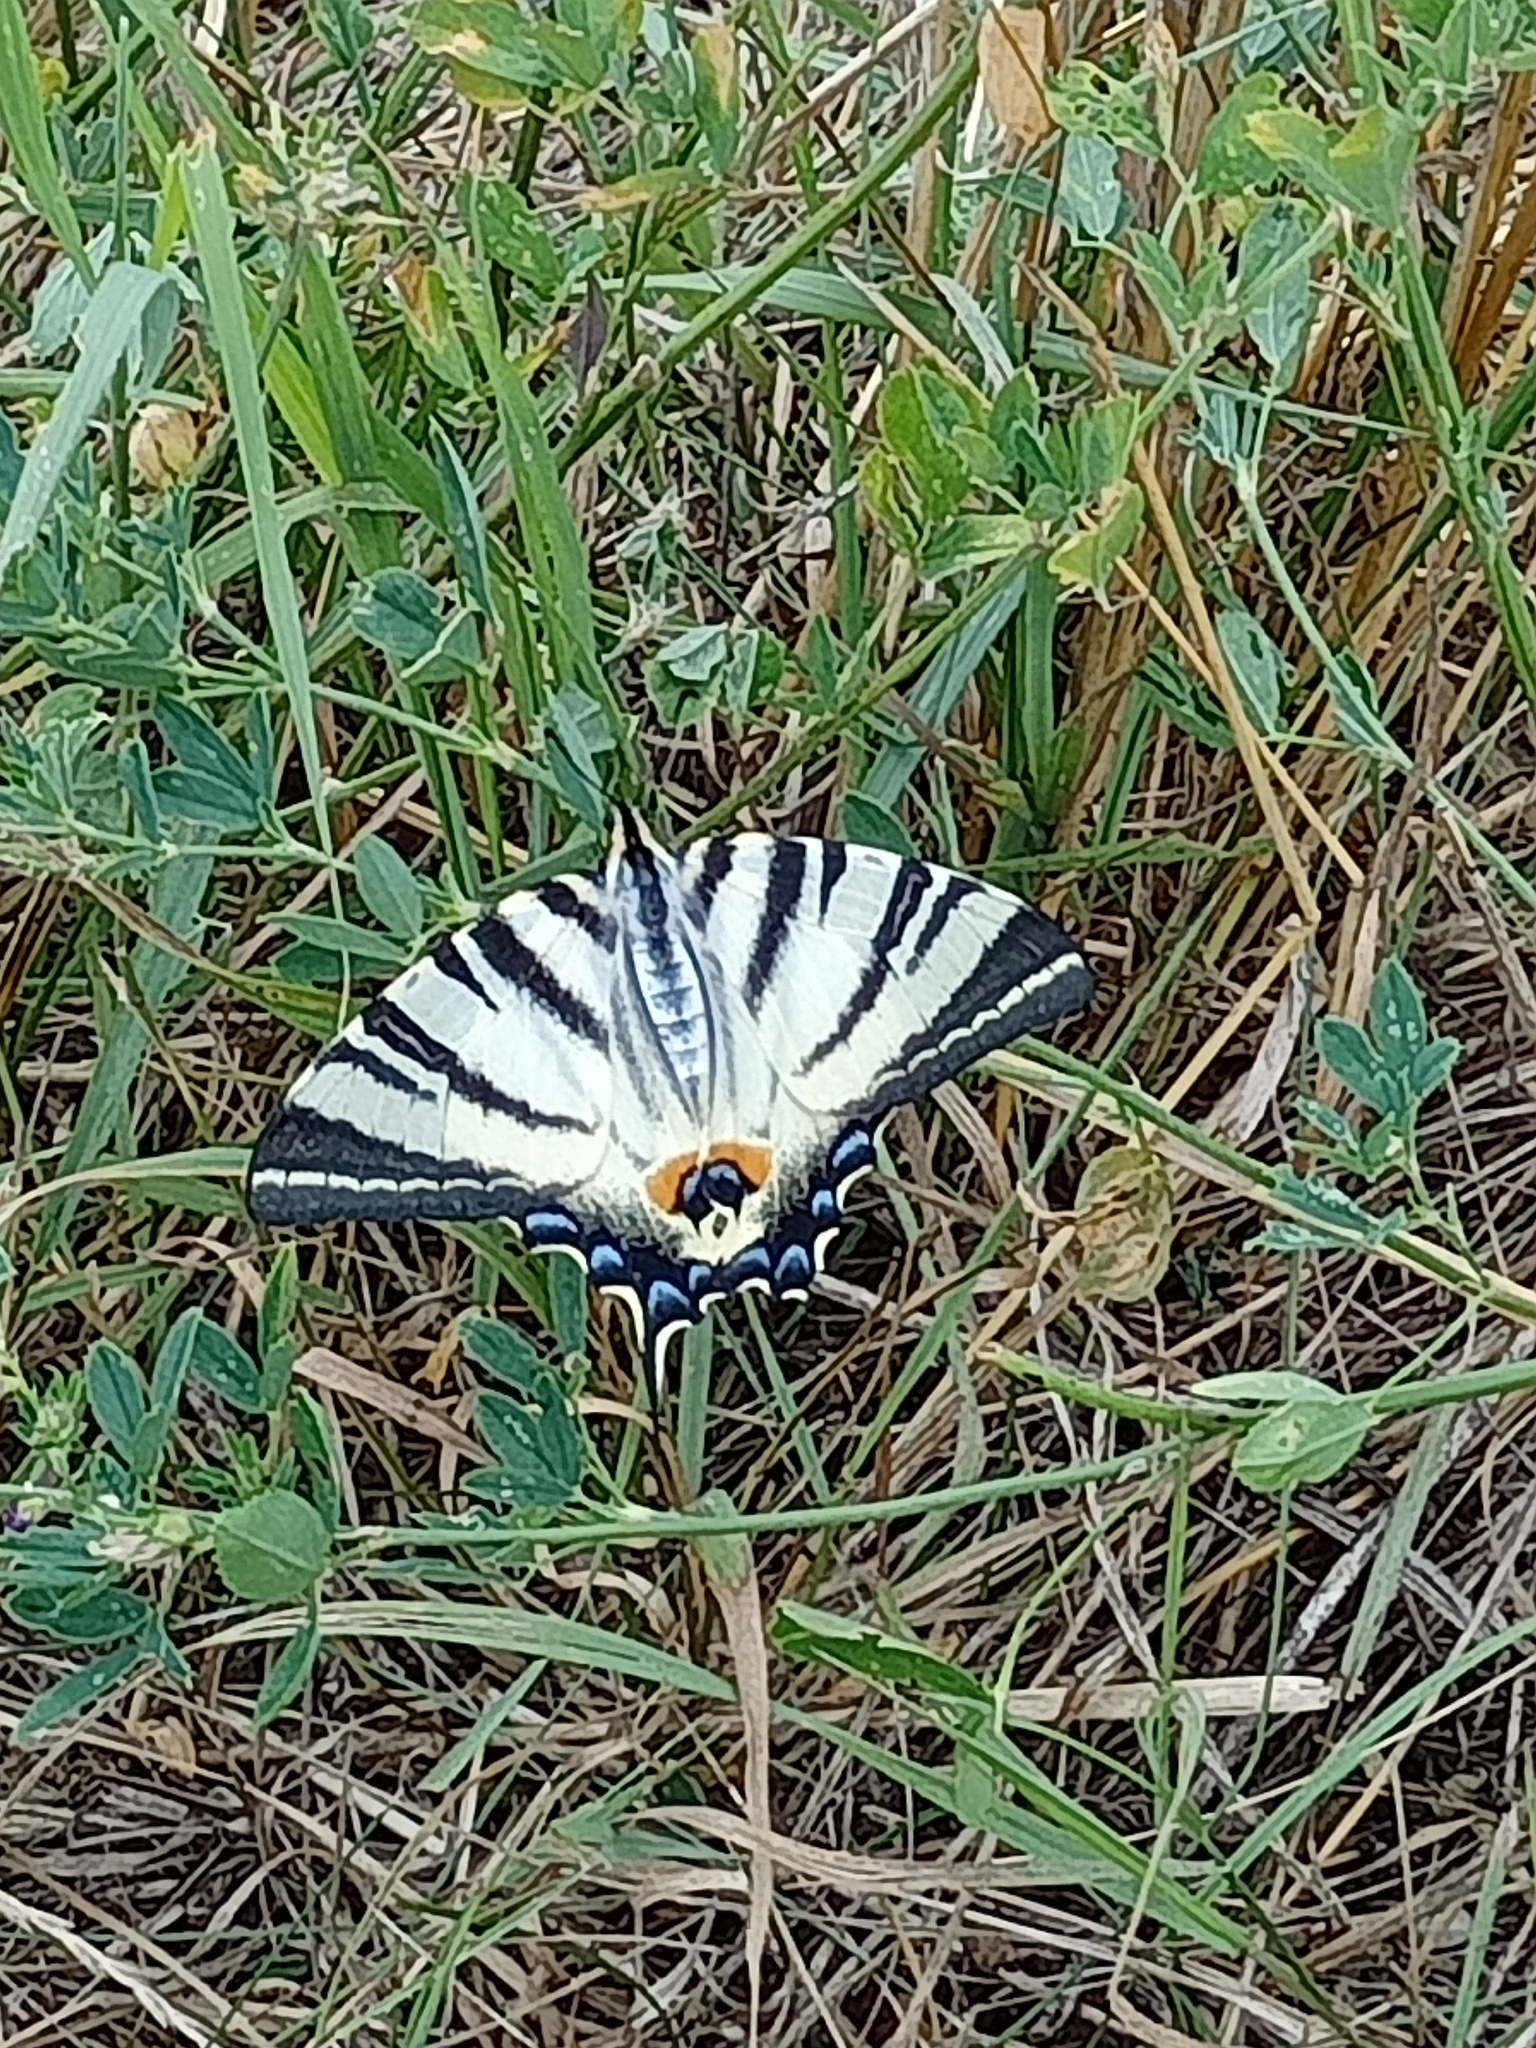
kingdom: Animalia
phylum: Arthropoda
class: Insecta
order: Lepidoptera
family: Papilionidae
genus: Iphiclides
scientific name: Iphiclides podalirius
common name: Scarce swallowtail
